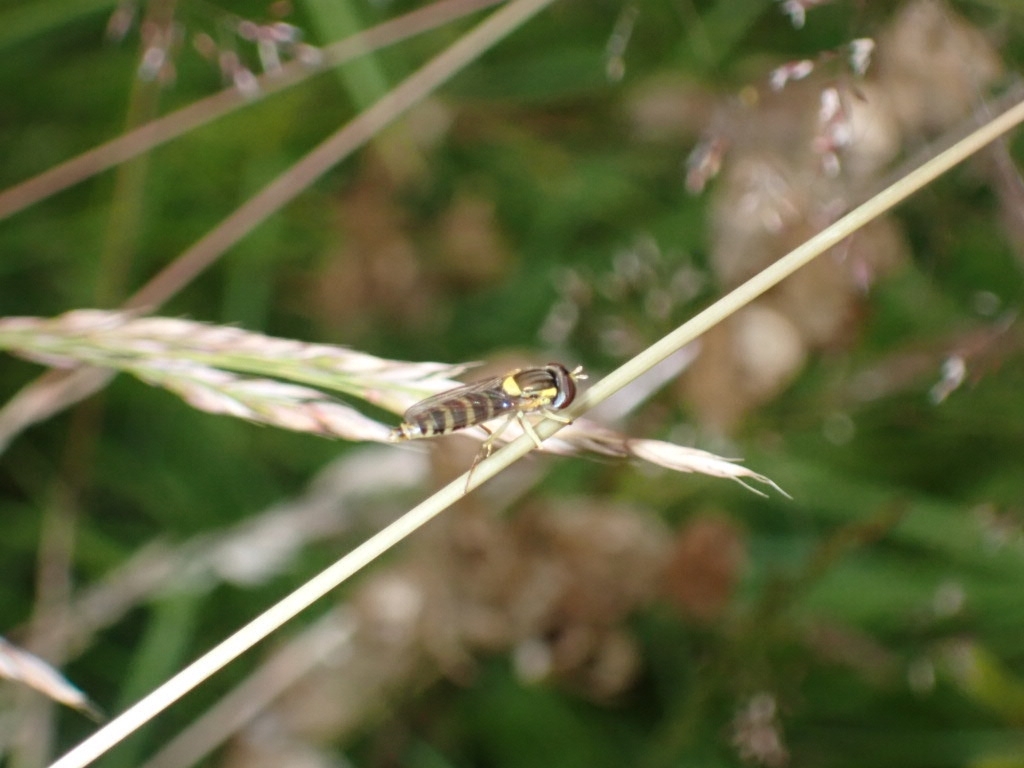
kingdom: Animalia
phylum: Arthropoda
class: Insecta
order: Diptera
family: Syrphidae
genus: Sphaerophoria
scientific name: Sphaerophoria
